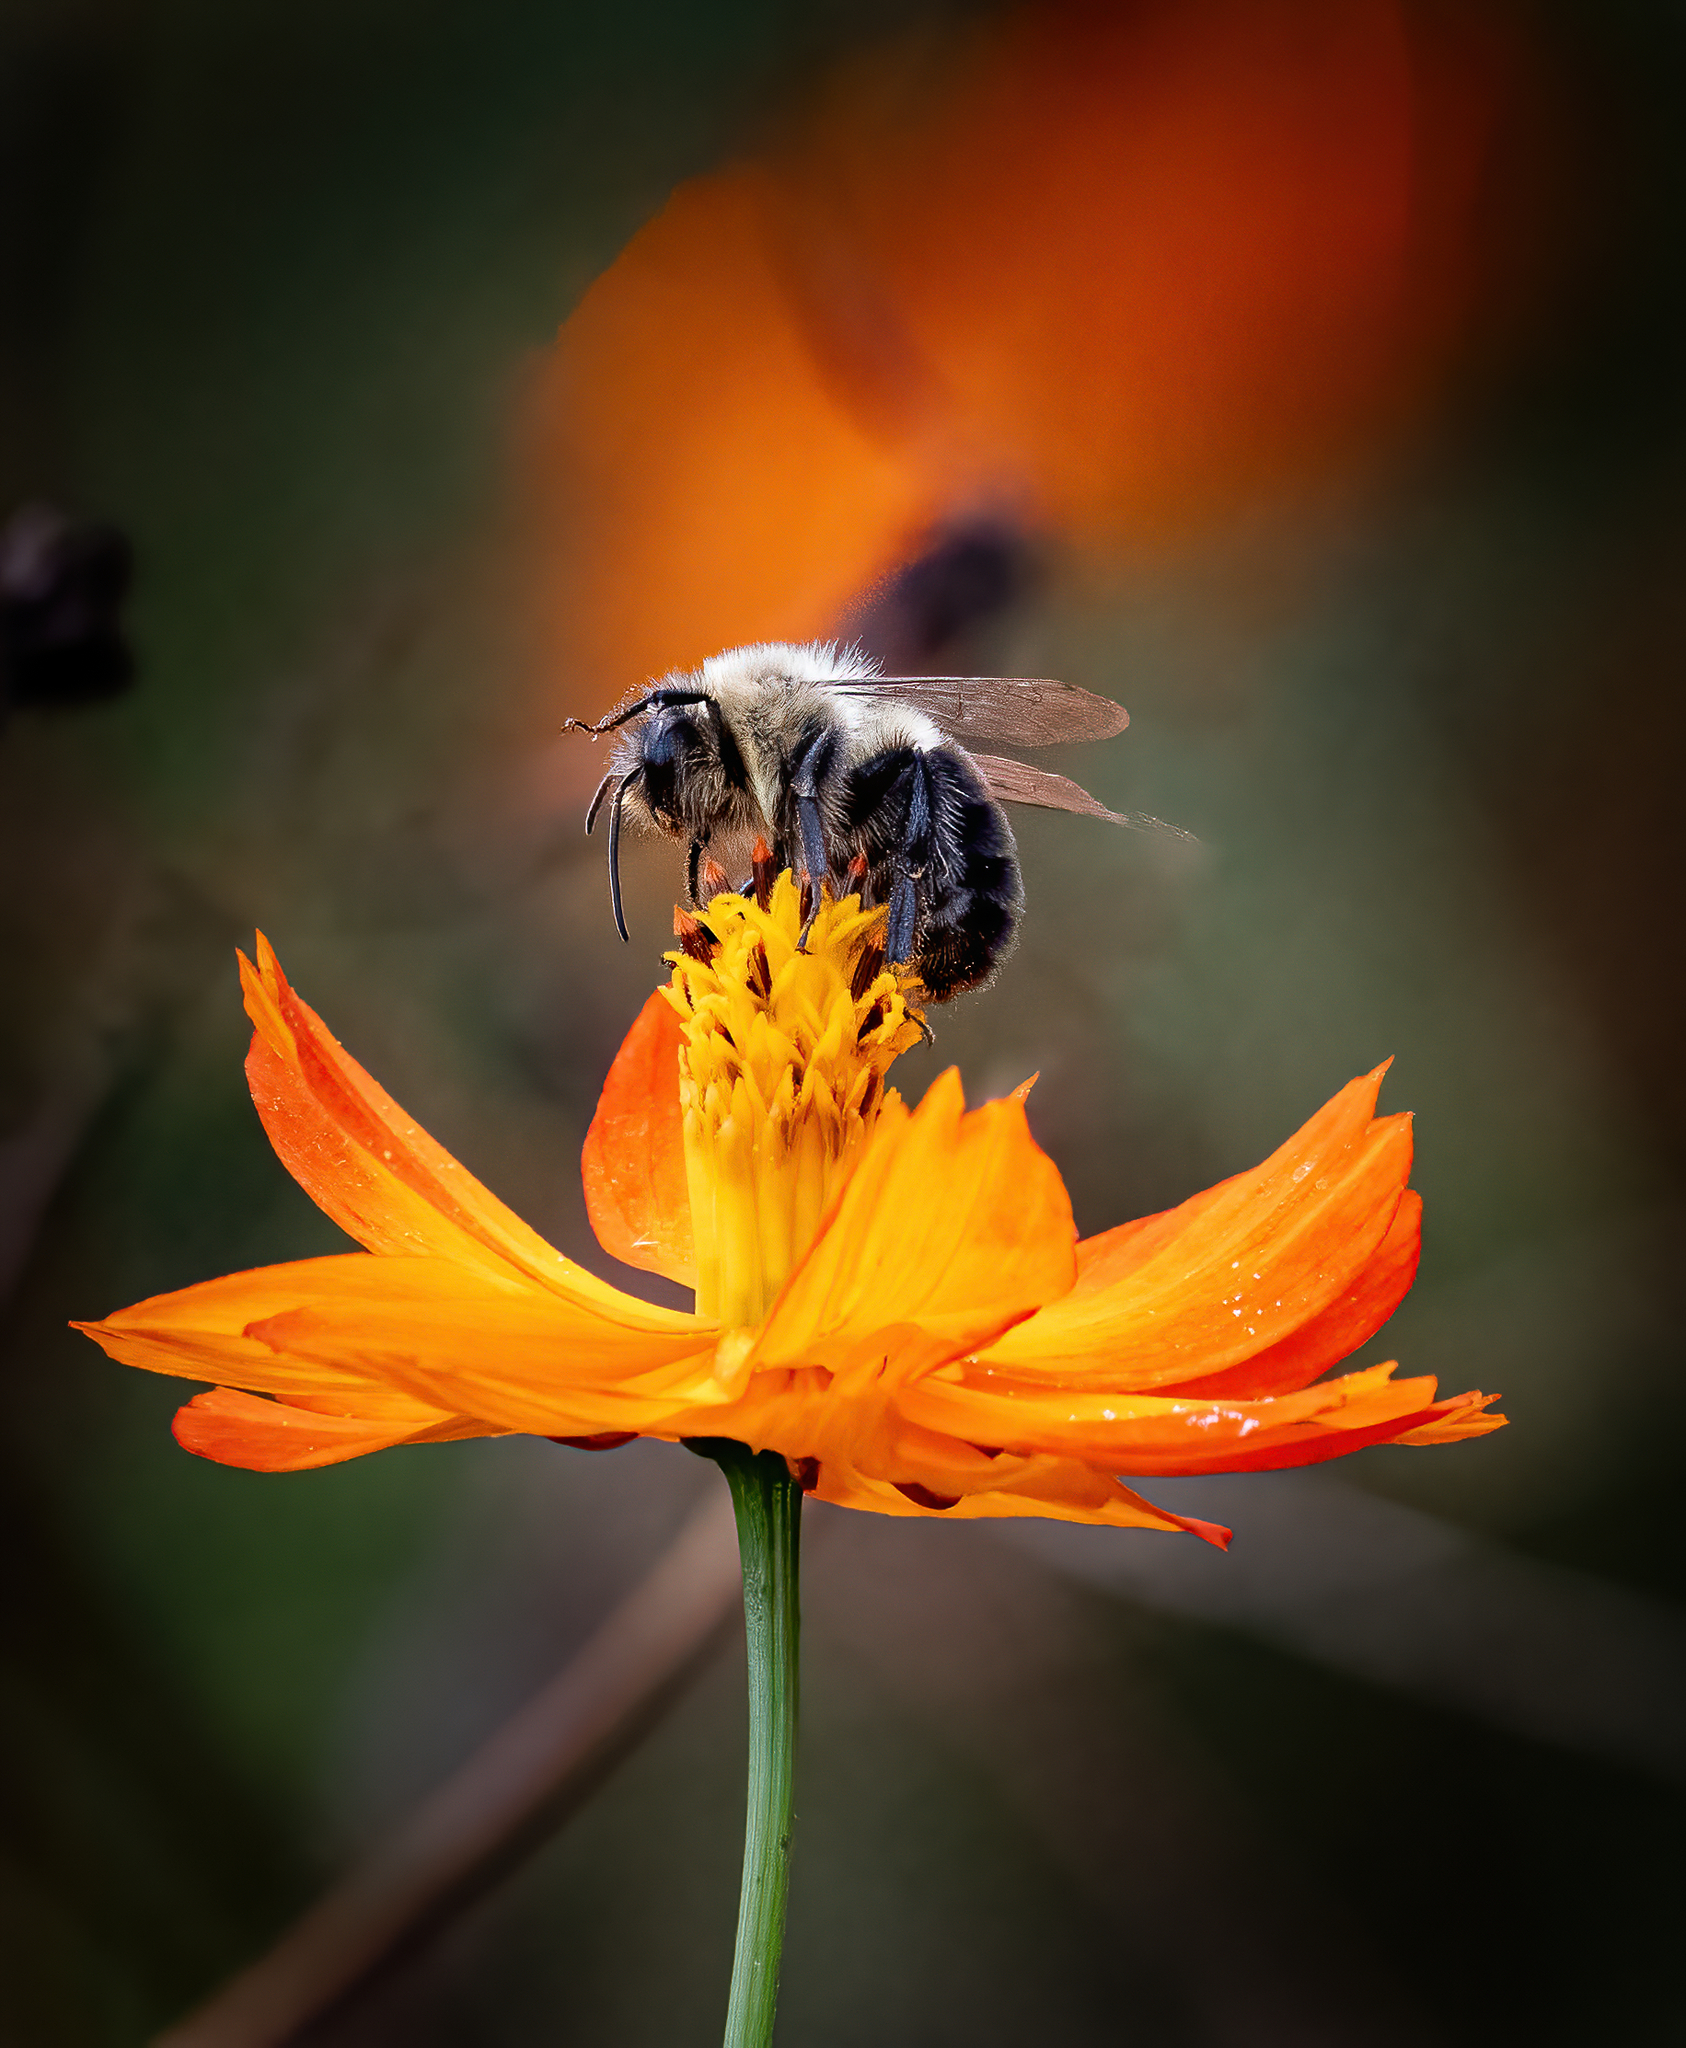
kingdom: Animalia
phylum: Arthropoda
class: Insecta
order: Hymenoptera
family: Apidae
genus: Bombus
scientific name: Bombus impatiens
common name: Common eastern bumble bee
